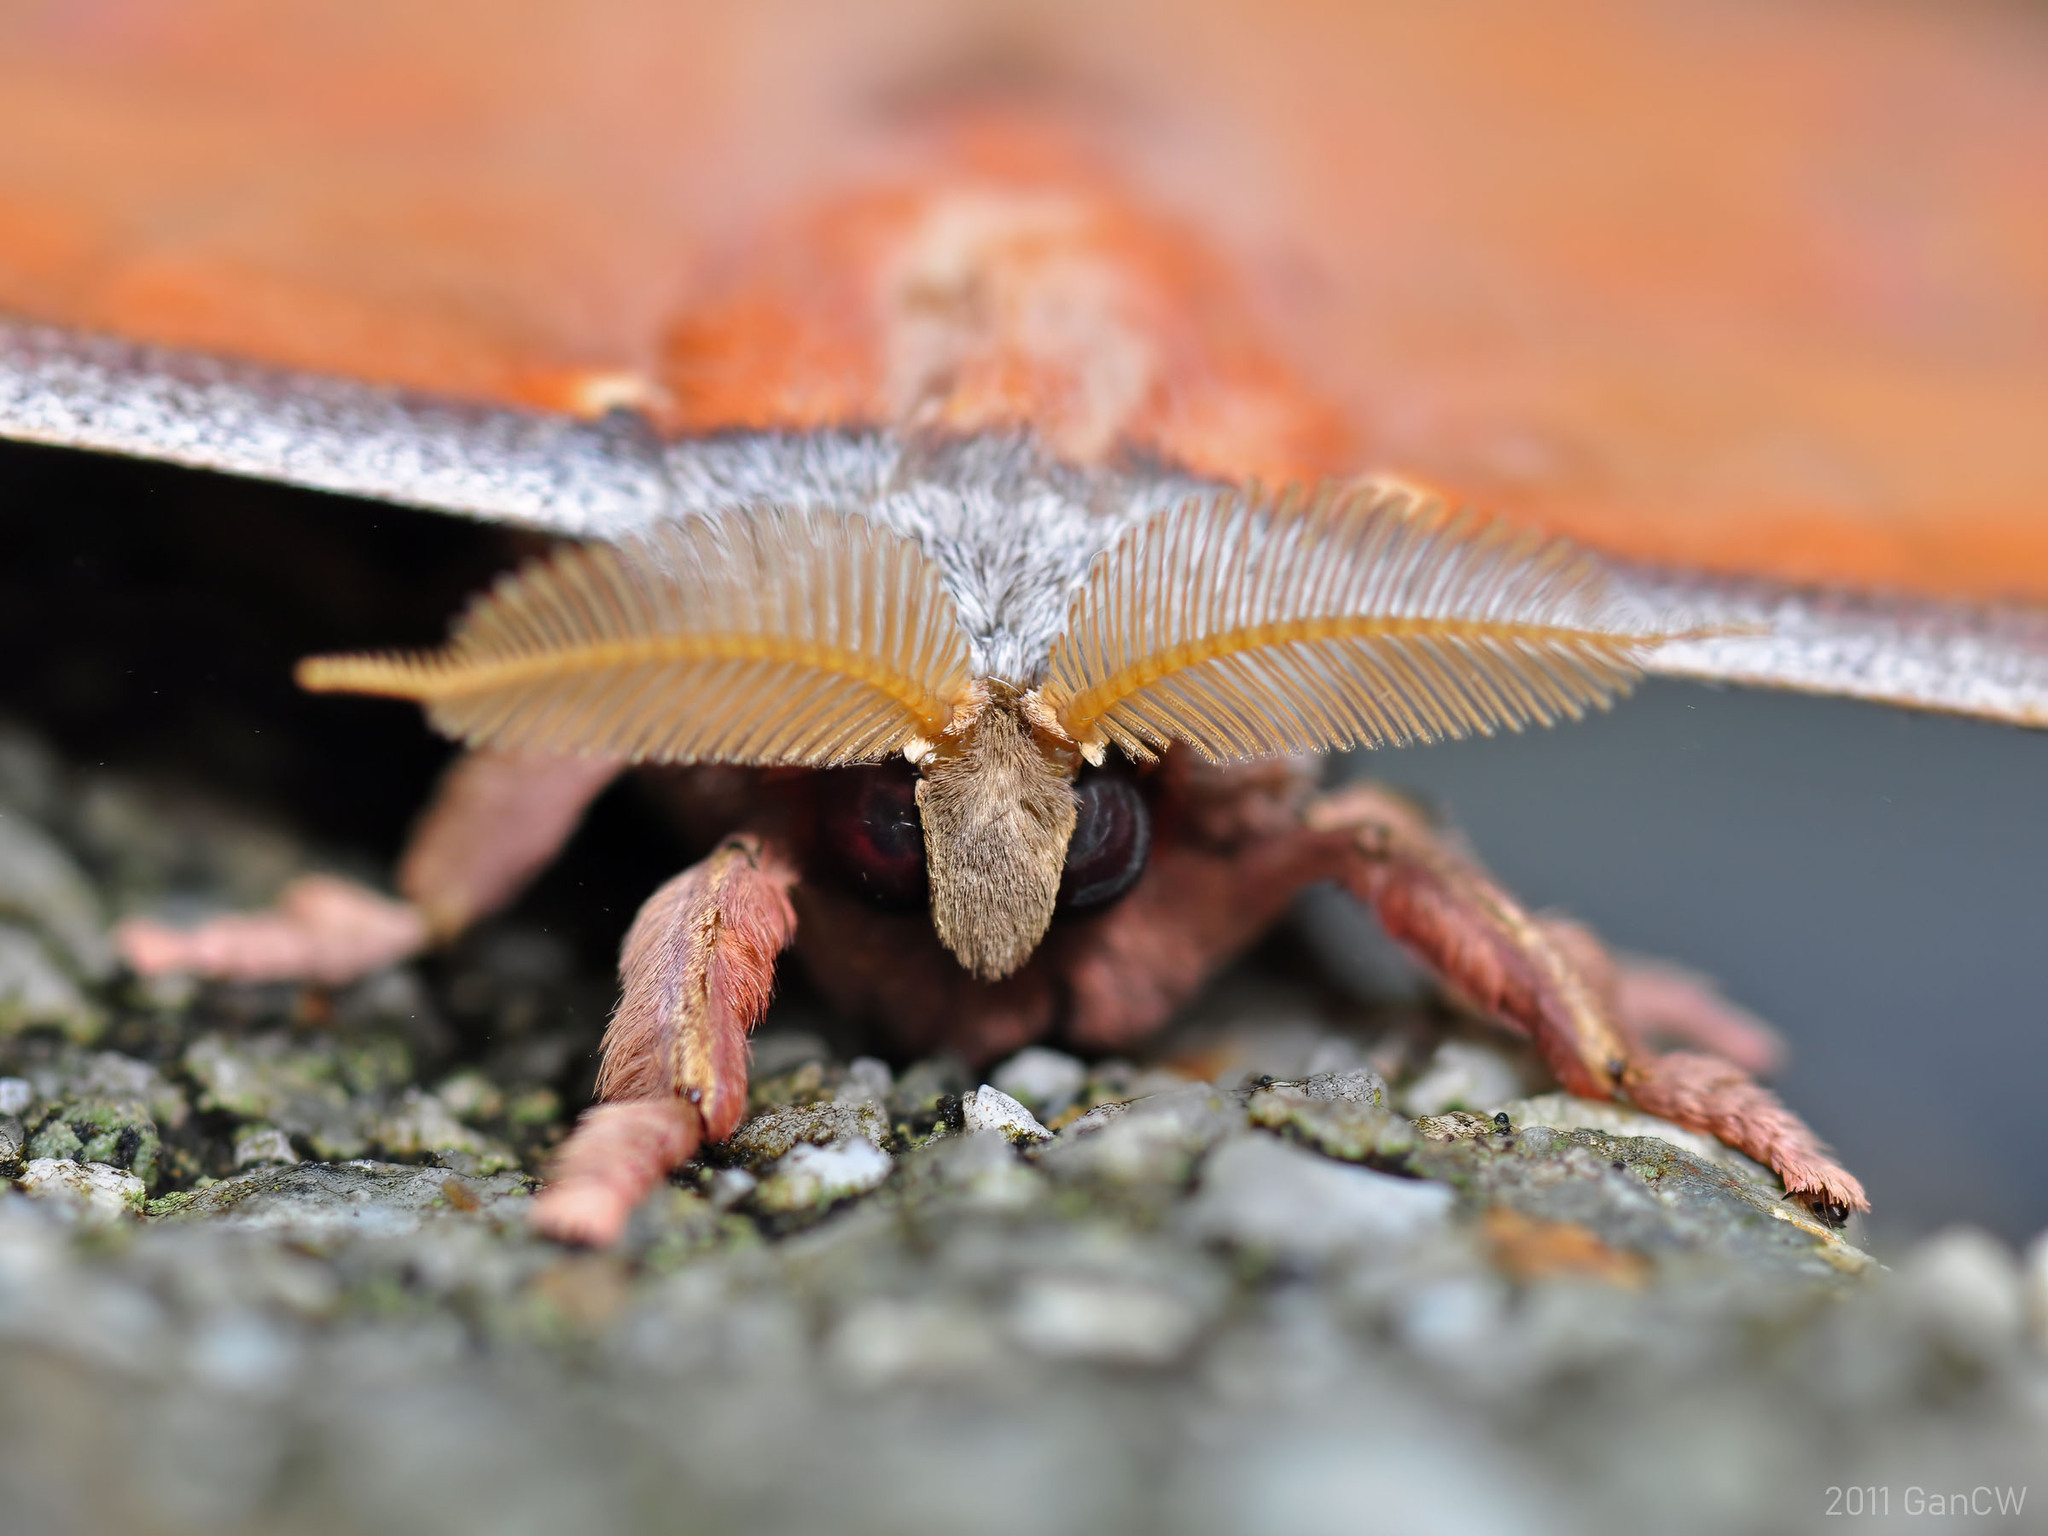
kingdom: Animalia
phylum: Arthropoda
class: Insecta
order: Lepidoptera
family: Saturniidae
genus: Antheraea
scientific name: Antheraea broschi
